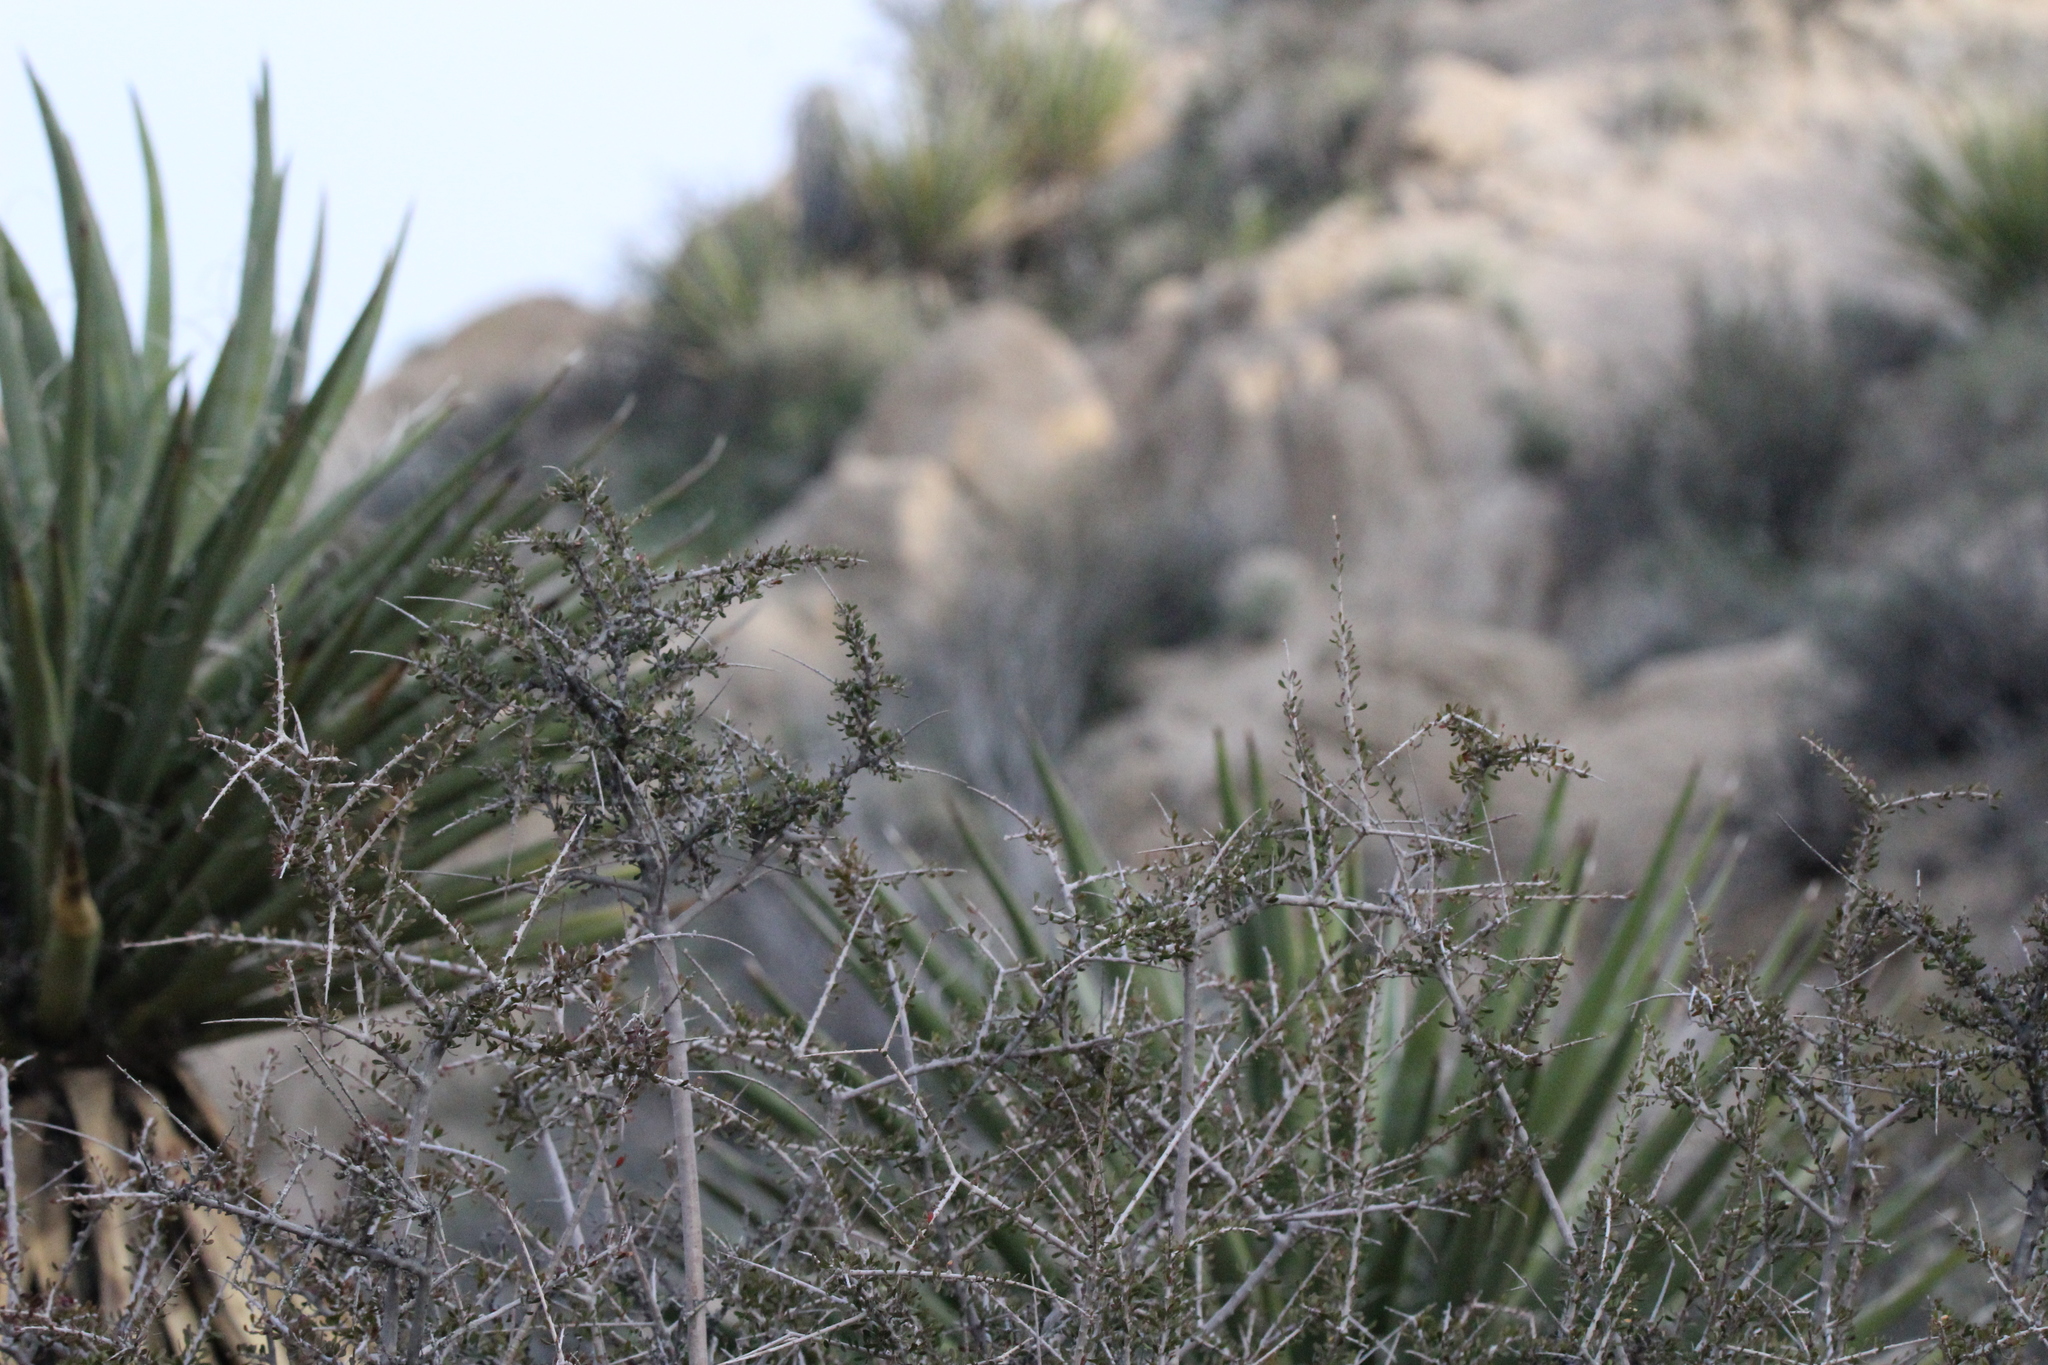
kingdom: Plantae
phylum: Tracheophyta
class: Liliopsida
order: Asparagales
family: Asparagaceae
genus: Yucca
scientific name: Yucca schidigera
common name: Mojave yucca
